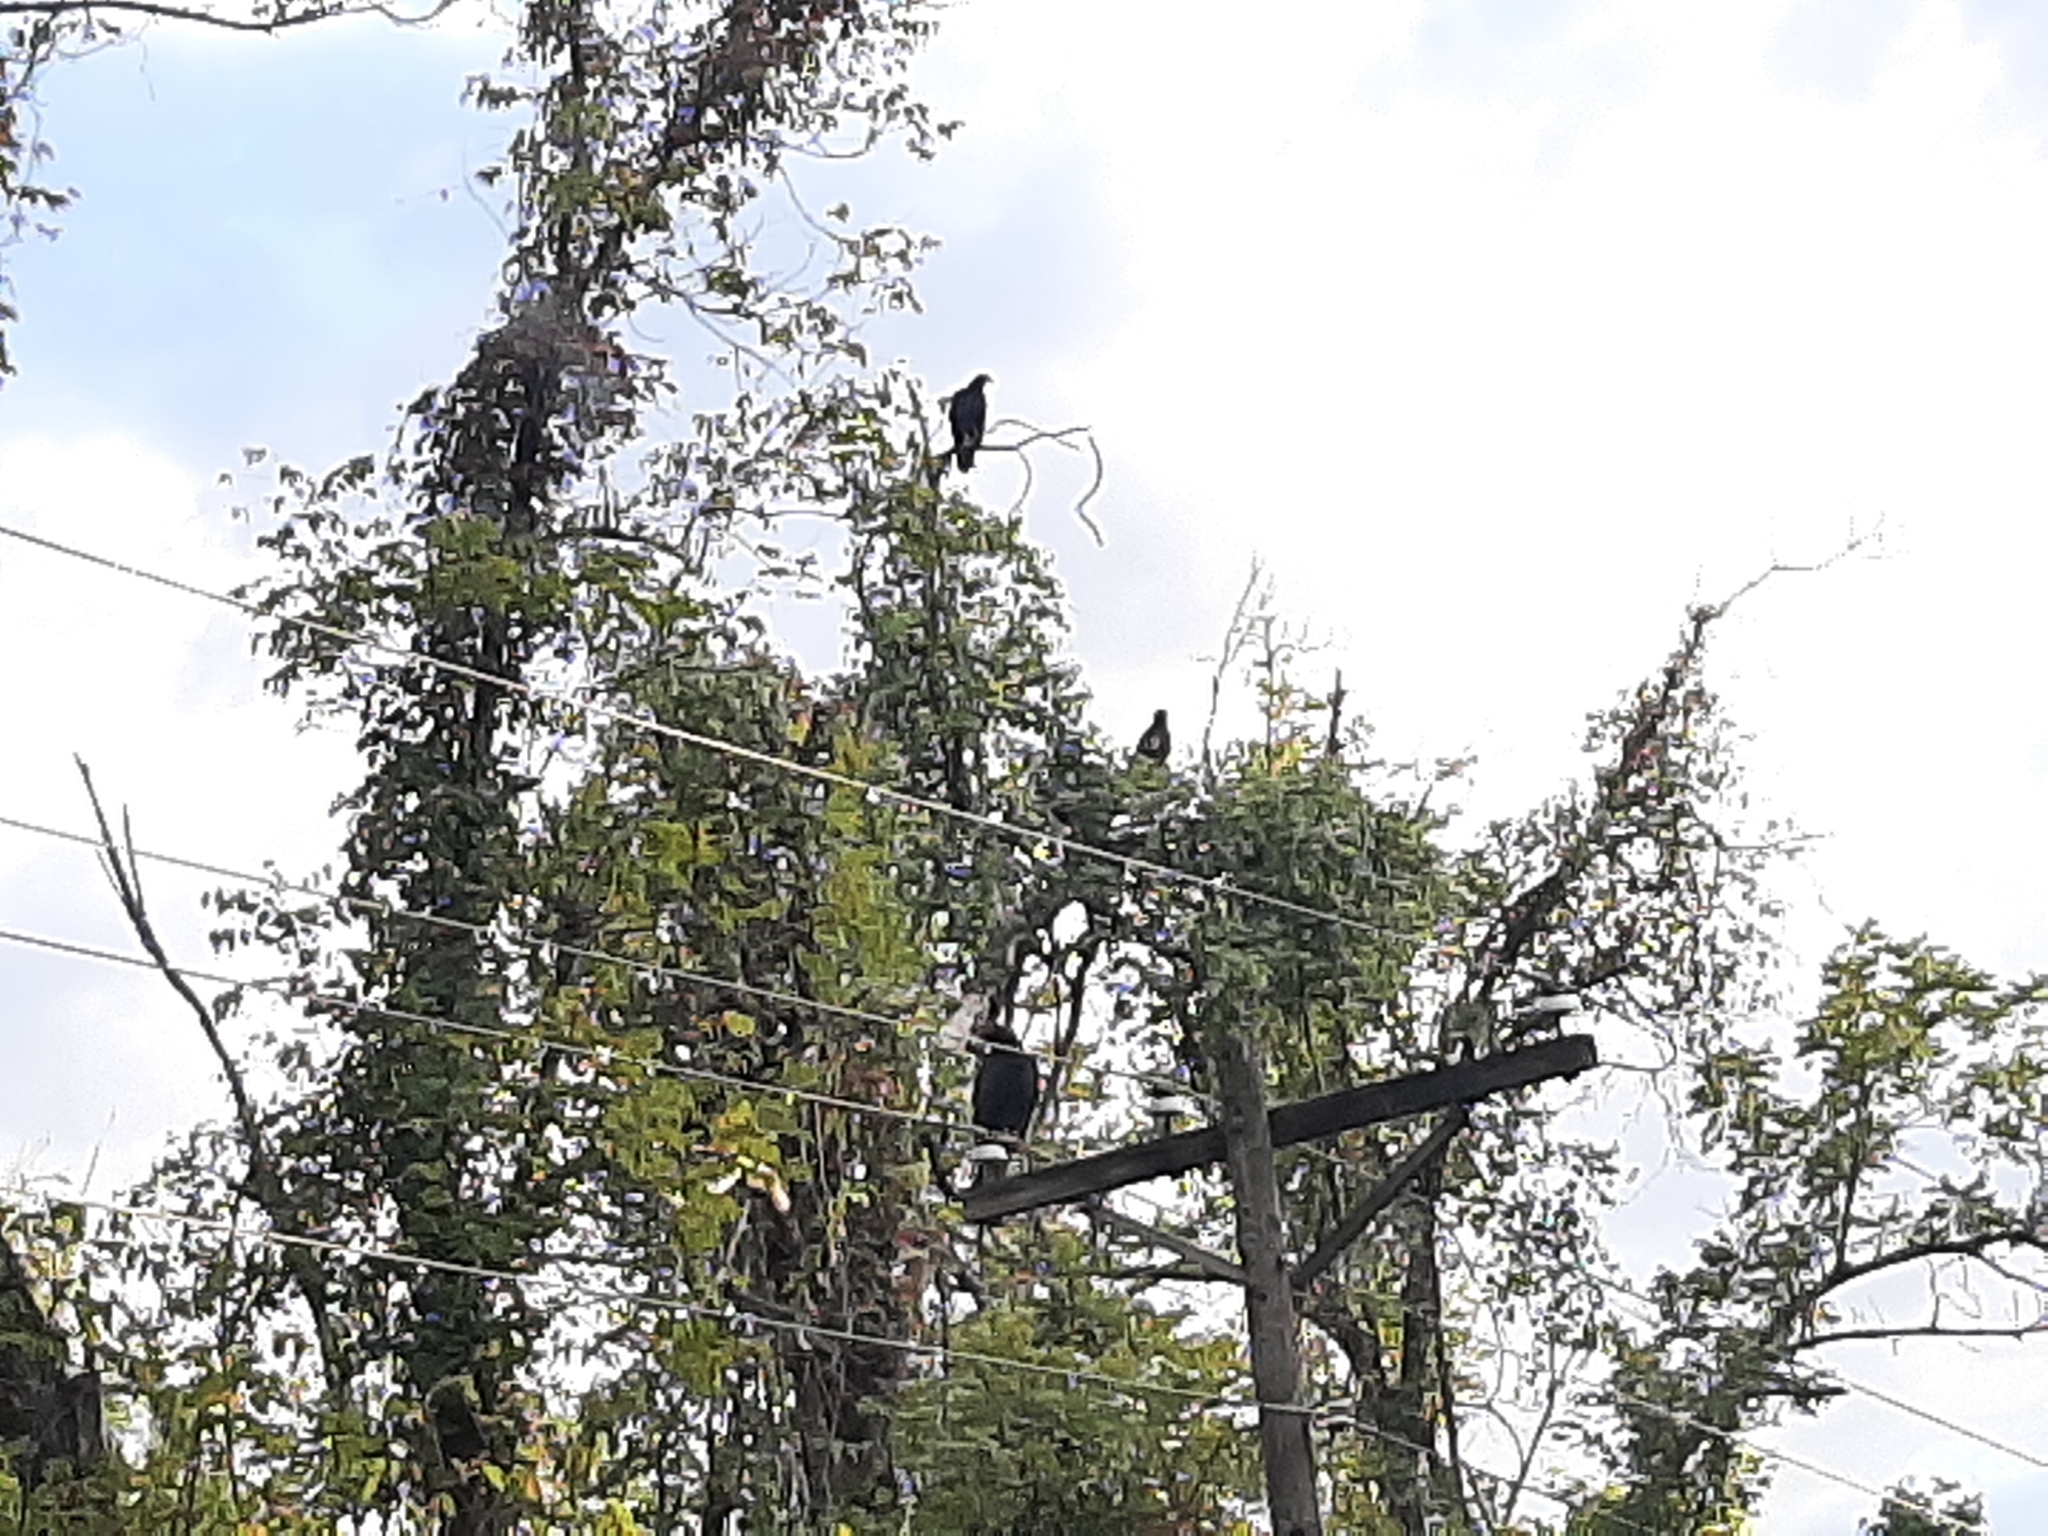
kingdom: Animalia
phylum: Chordata
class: Aves
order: Accipitriformes
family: Cathartidae
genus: Cathartes
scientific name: Cathartes aura
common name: Turkey vulture
